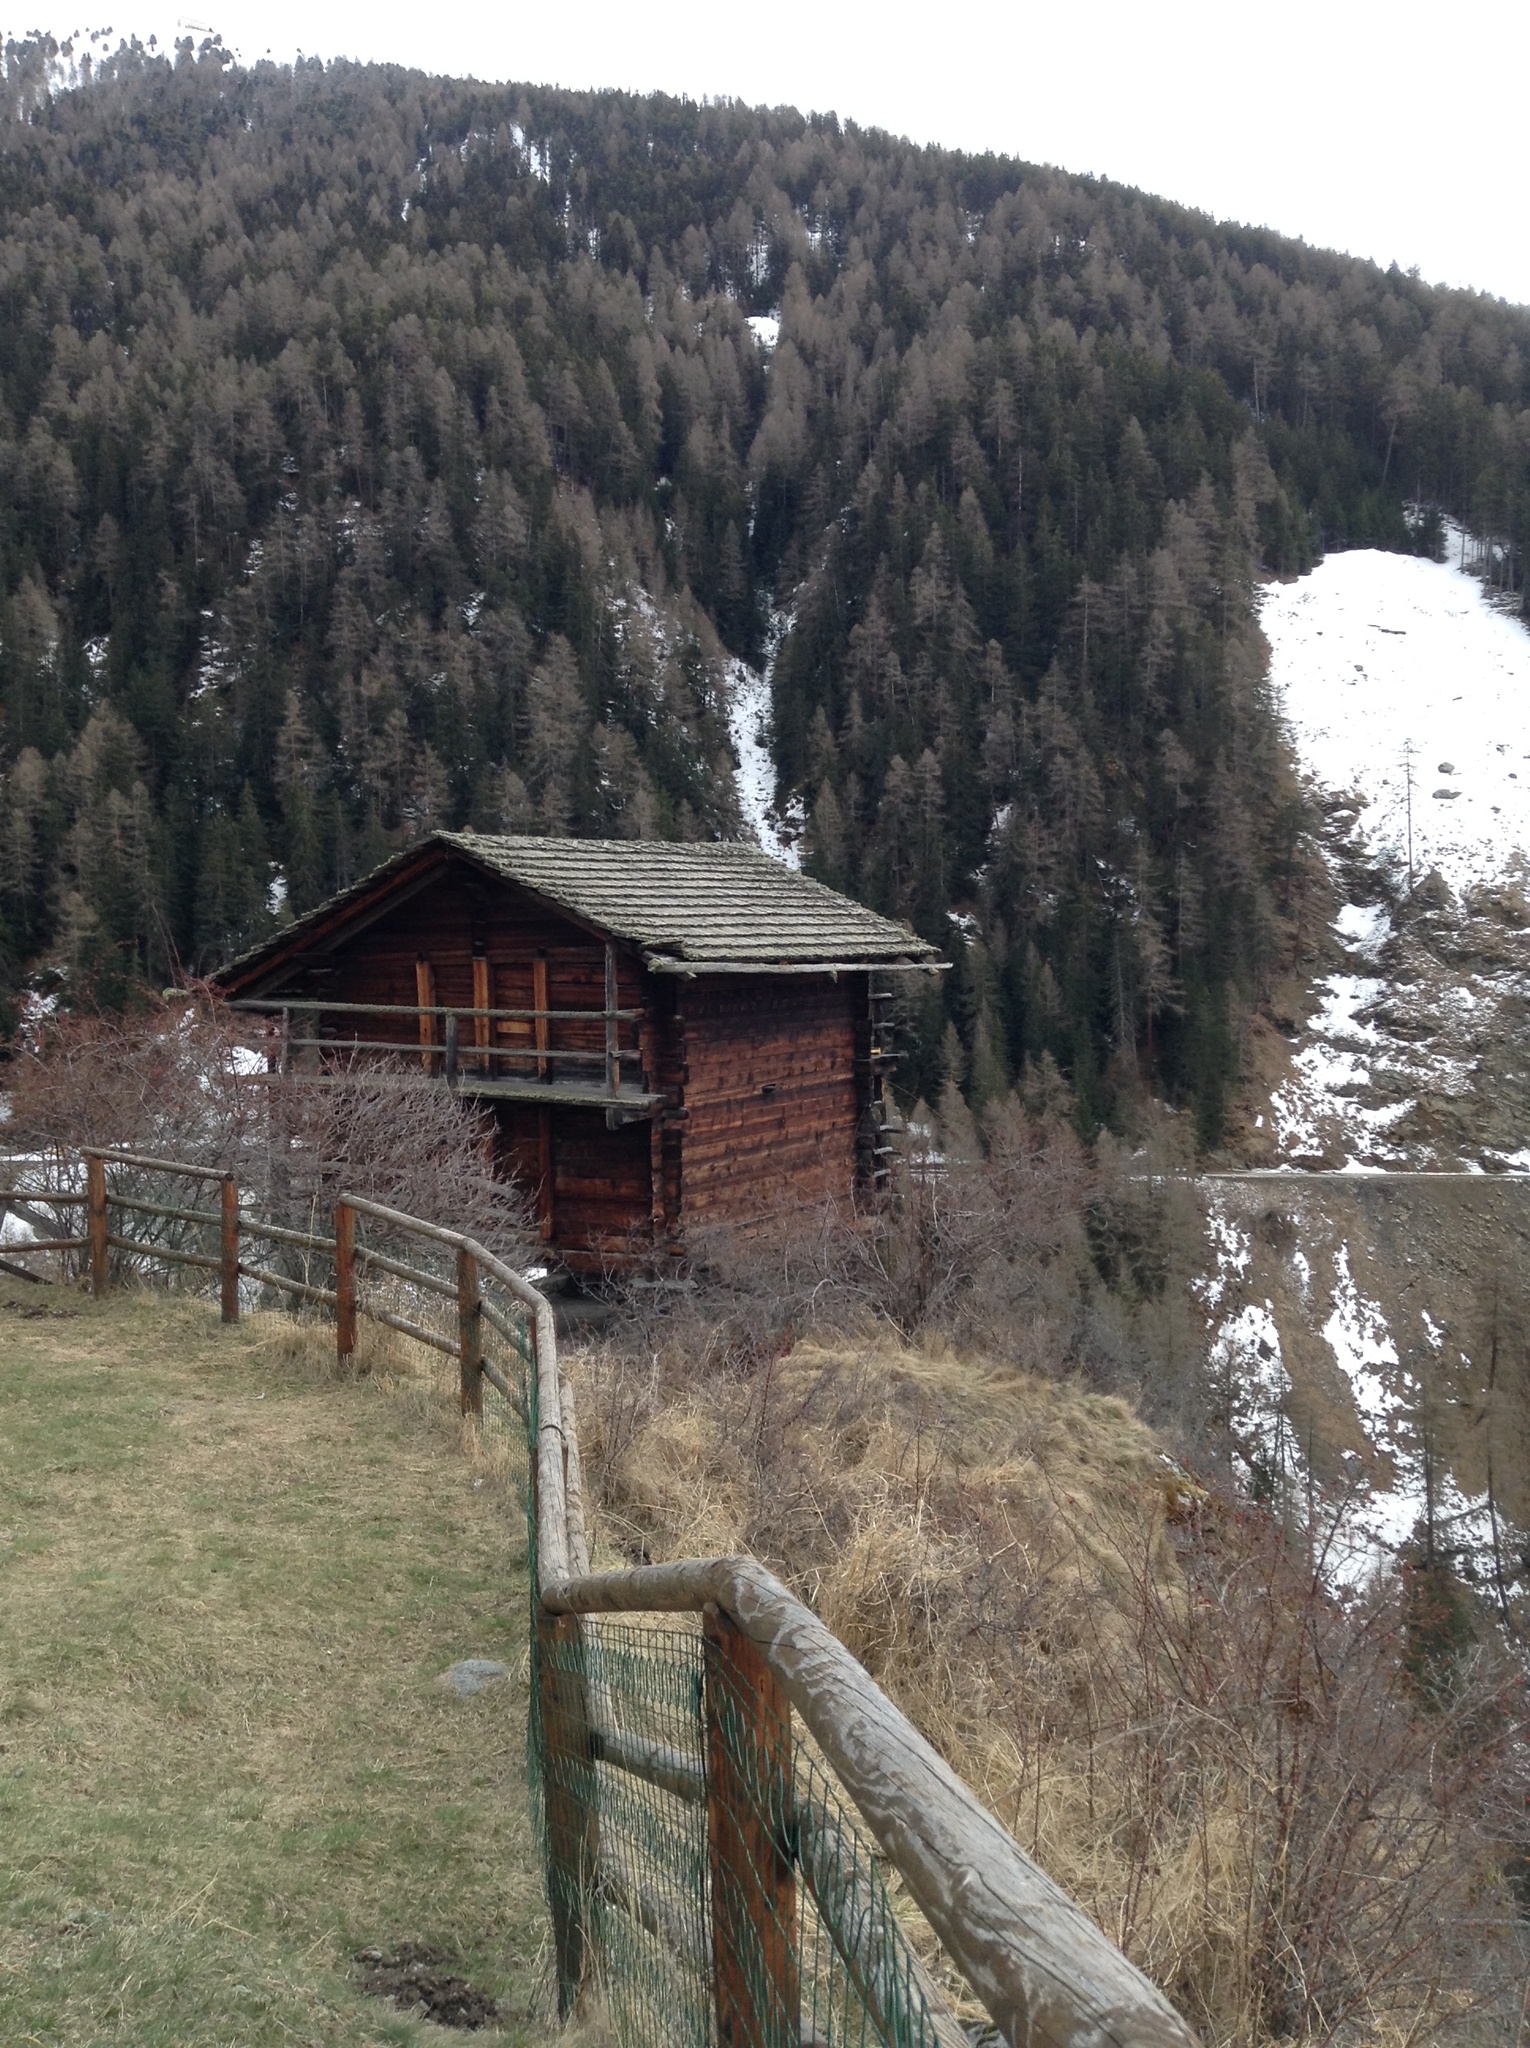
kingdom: Plantae
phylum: Tracheophyta
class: Pinopsida
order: Pinales
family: Pinaceae
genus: Larix
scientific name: Larix decidua
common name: European larch
